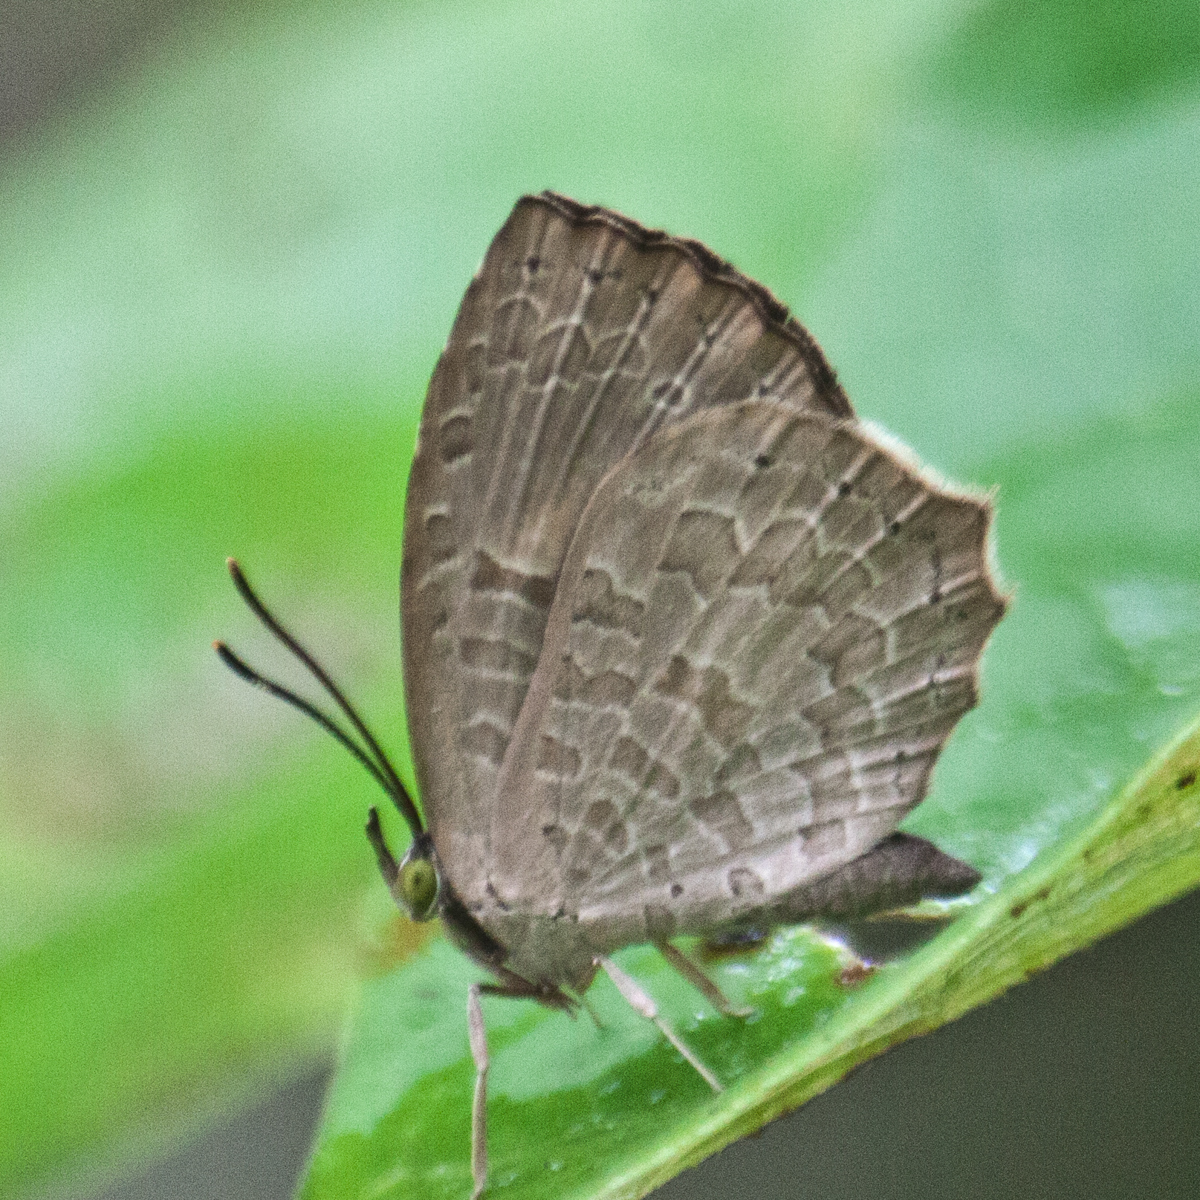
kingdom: Animalia
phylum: Arthropoda
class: Insecta
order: Lepidoptera
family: Lycaenidae
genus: Miletus
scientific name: Miletus chinensis
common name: Common brownie
